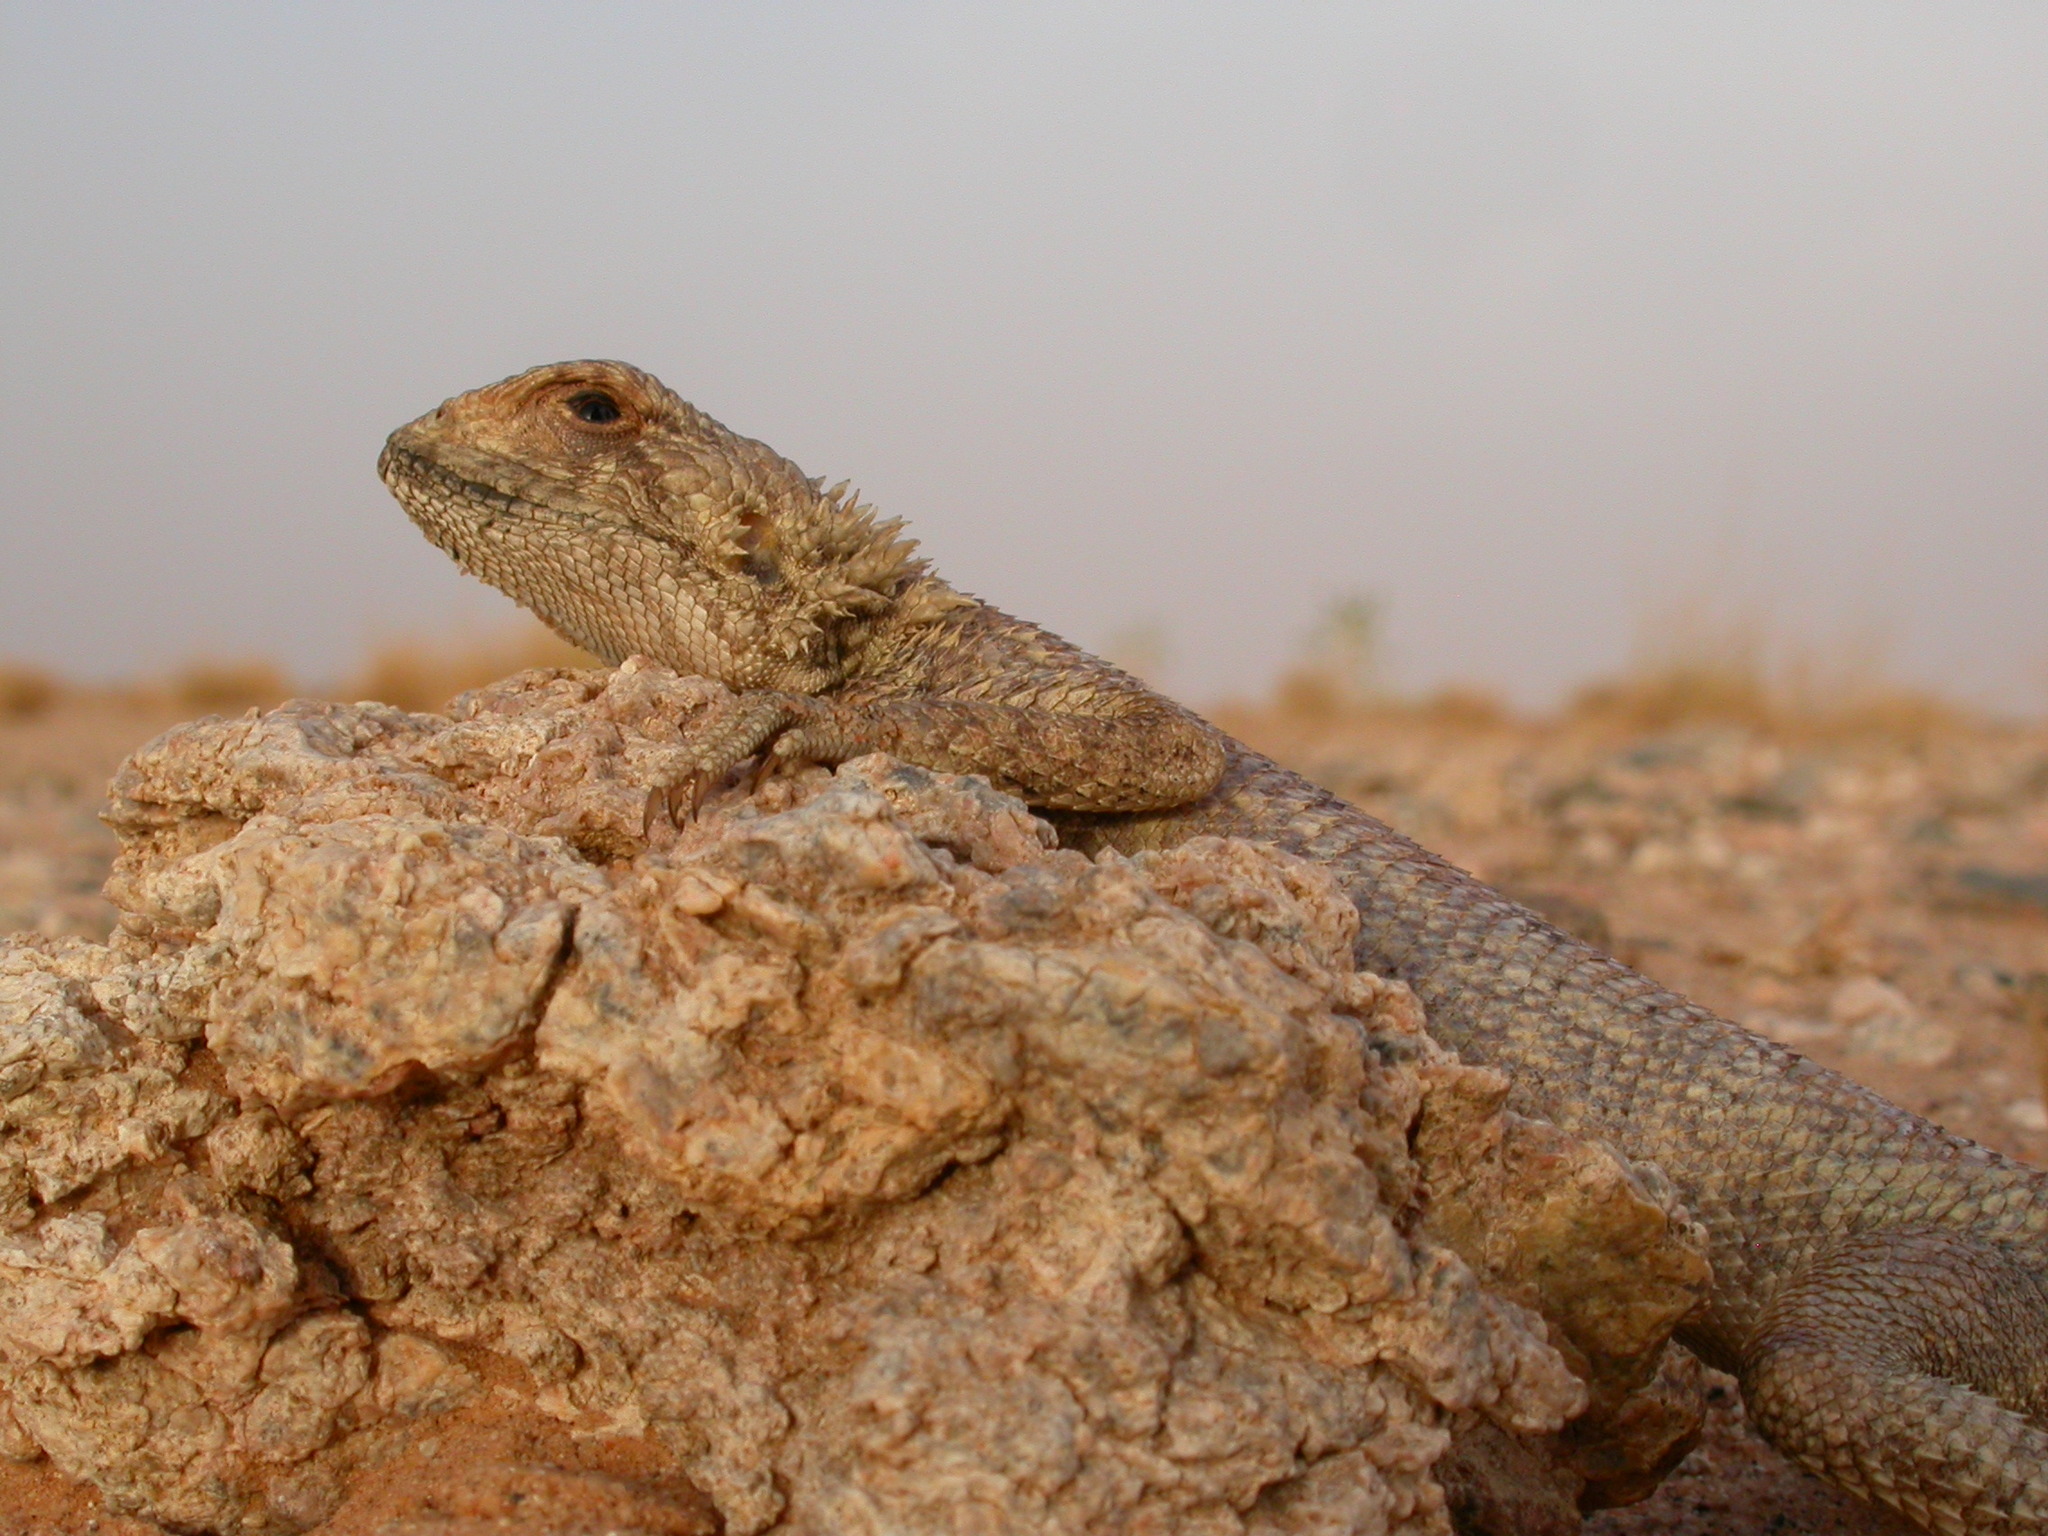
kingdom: Animalia
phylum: Chordata
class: Squamata
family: Agamidae
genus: Agama
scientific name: Agama boueti
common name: Mali agama
